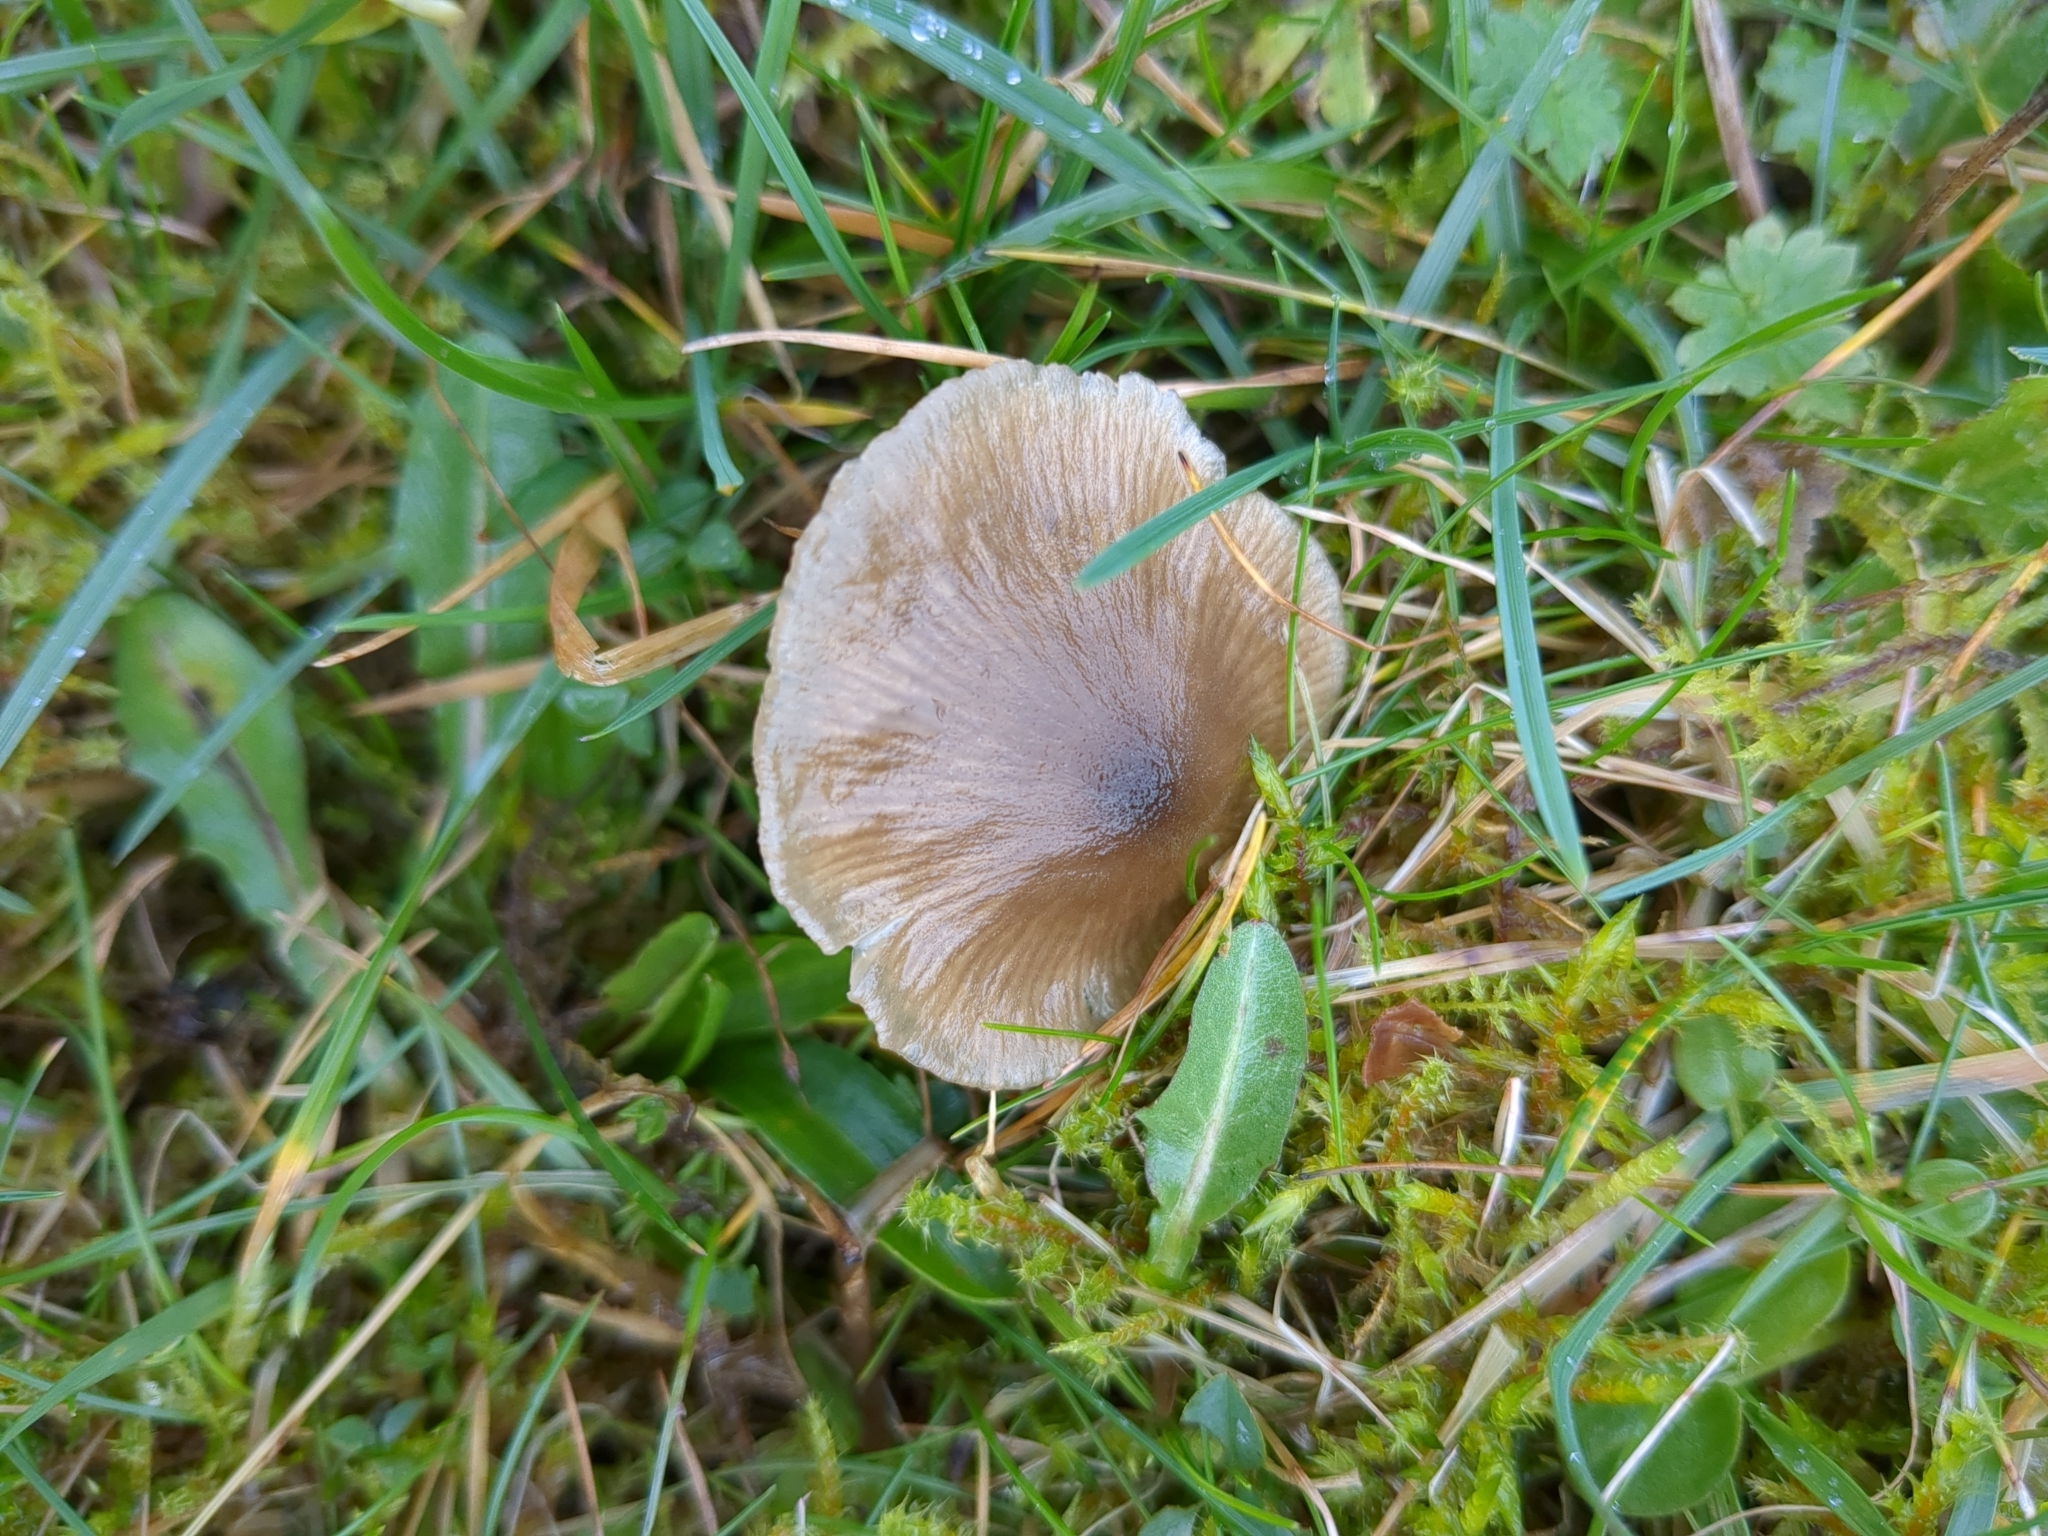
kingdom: Fungi
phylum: Basidiomycota
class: Agaricomycetes
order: Agaricales
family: Entolomataceae
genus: Entoloma
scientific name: Entoloma conferendum
